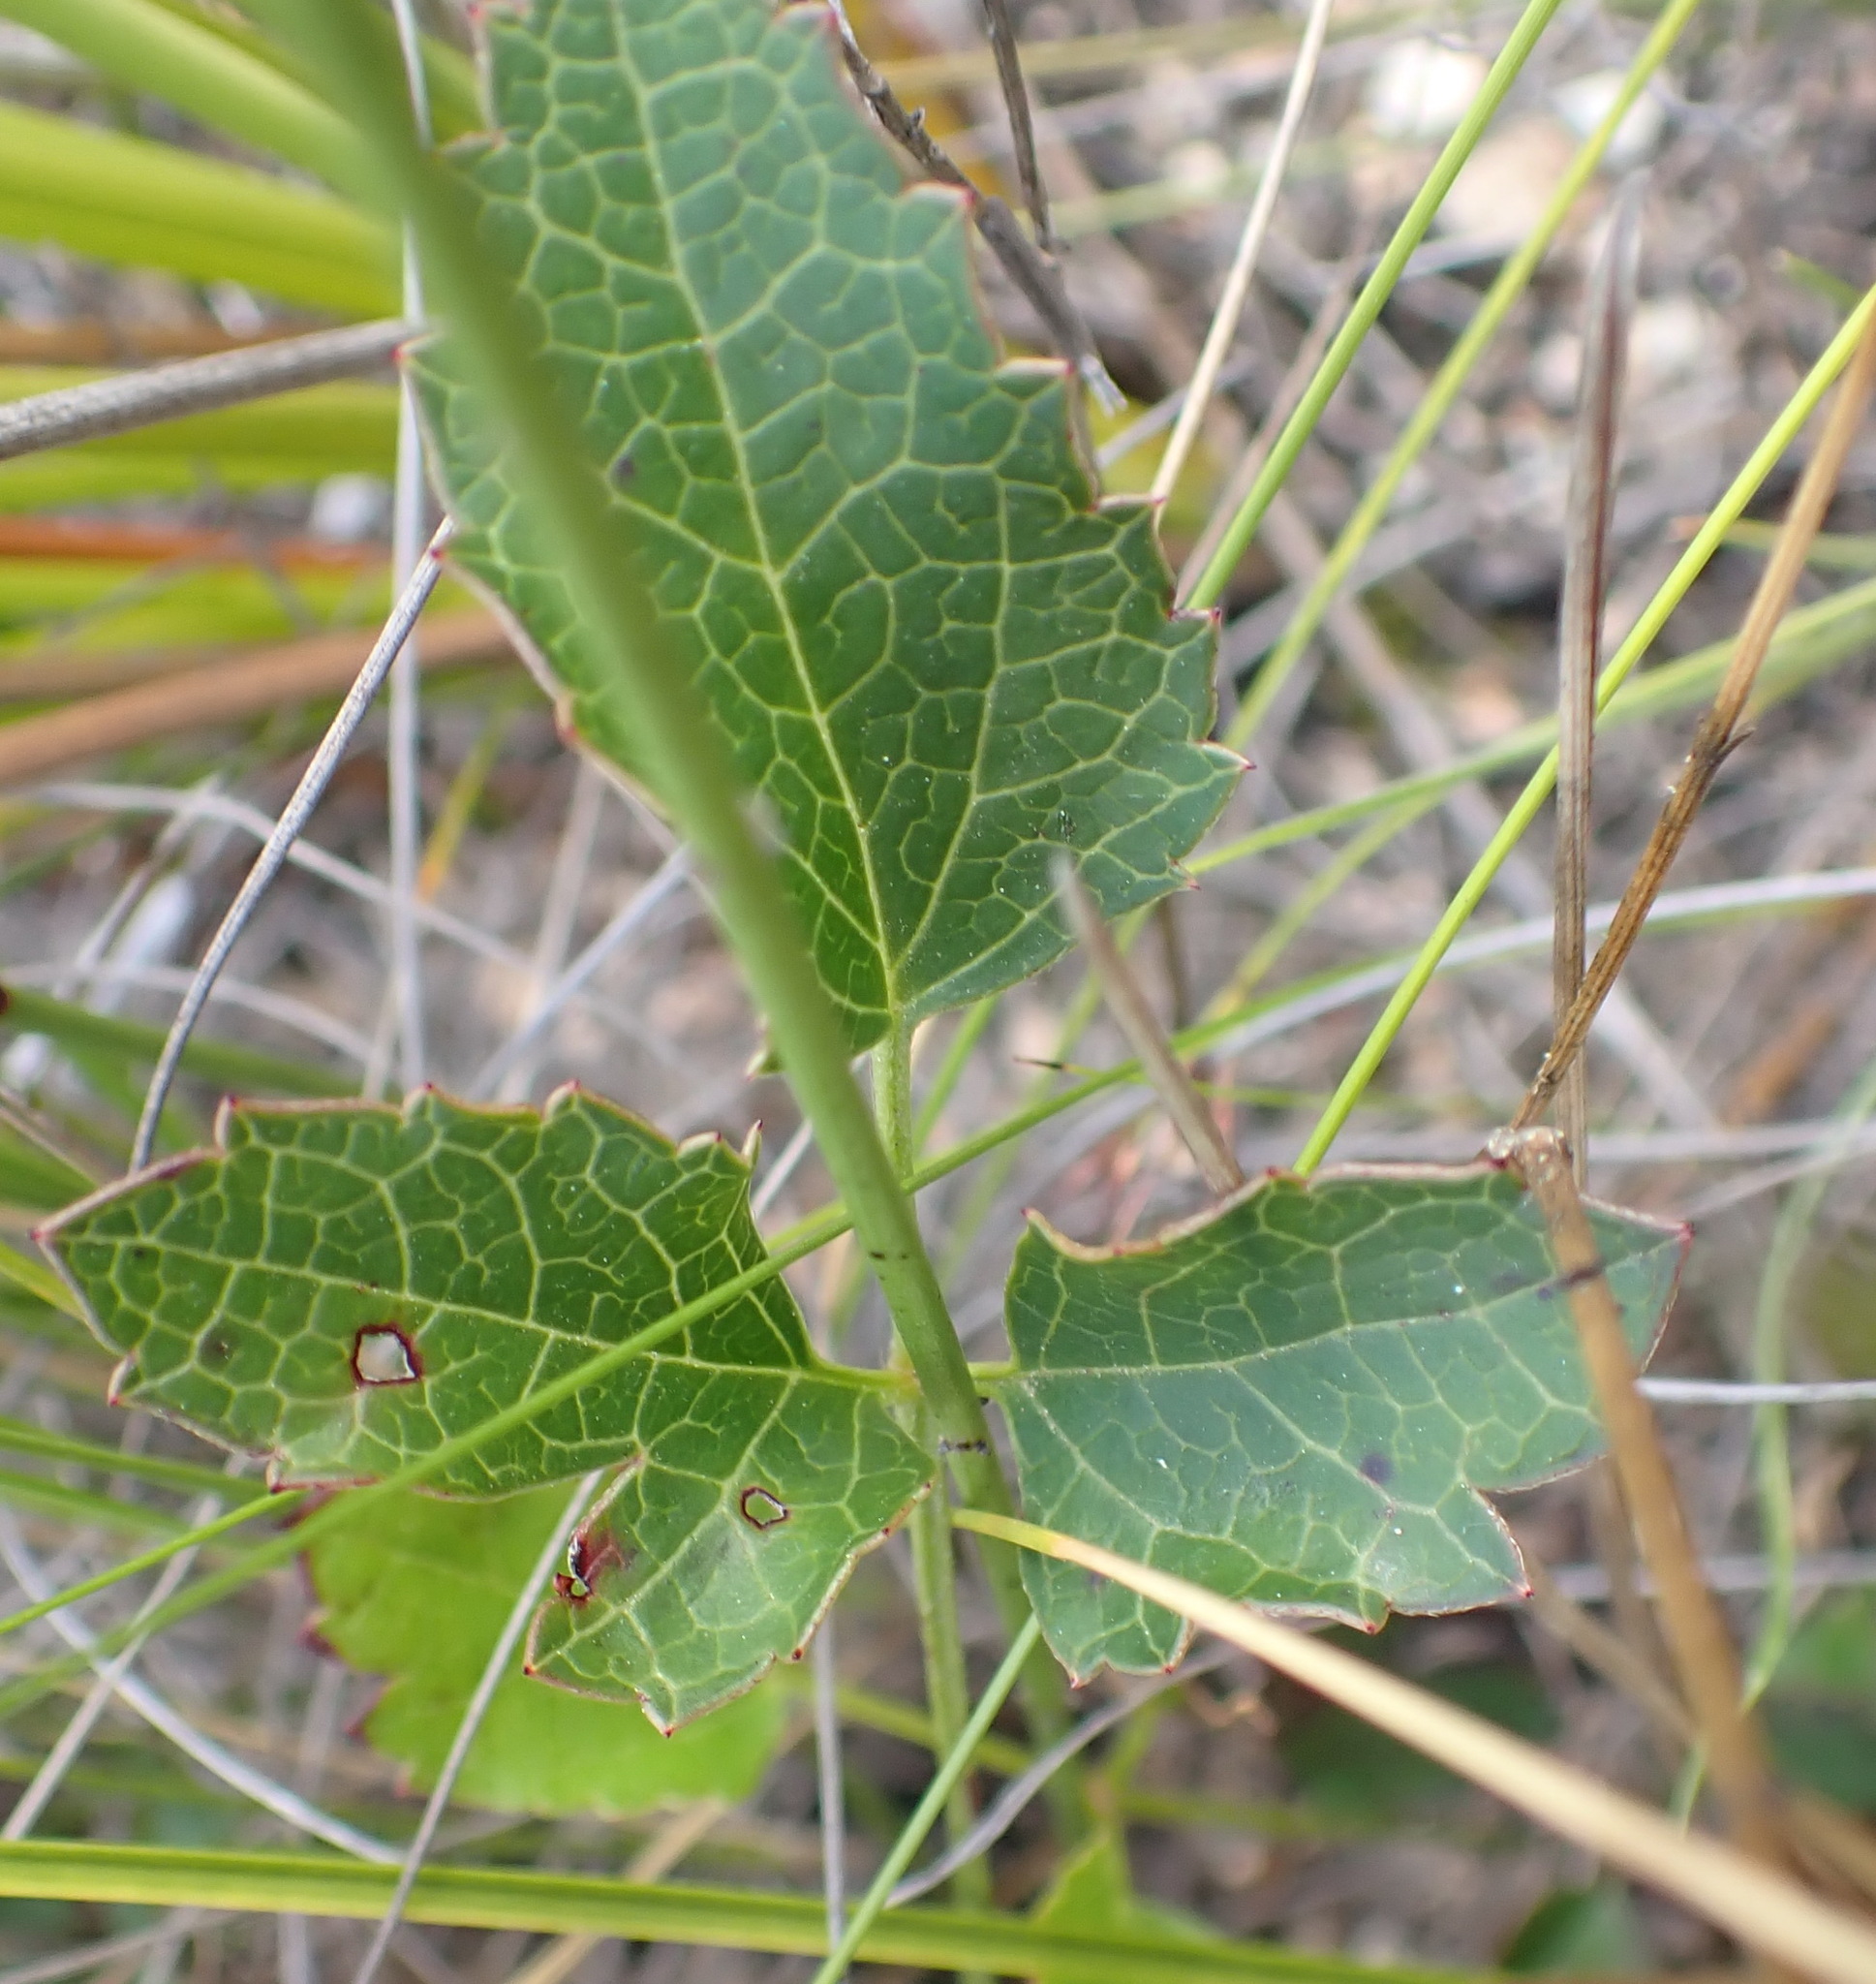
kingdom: Plantae
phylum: Tracheophyta
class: Magnoliopsida
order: Ranunculales
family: Ranunculaceae
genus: Knowltonia
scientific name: Knowltonia vesicatoria
